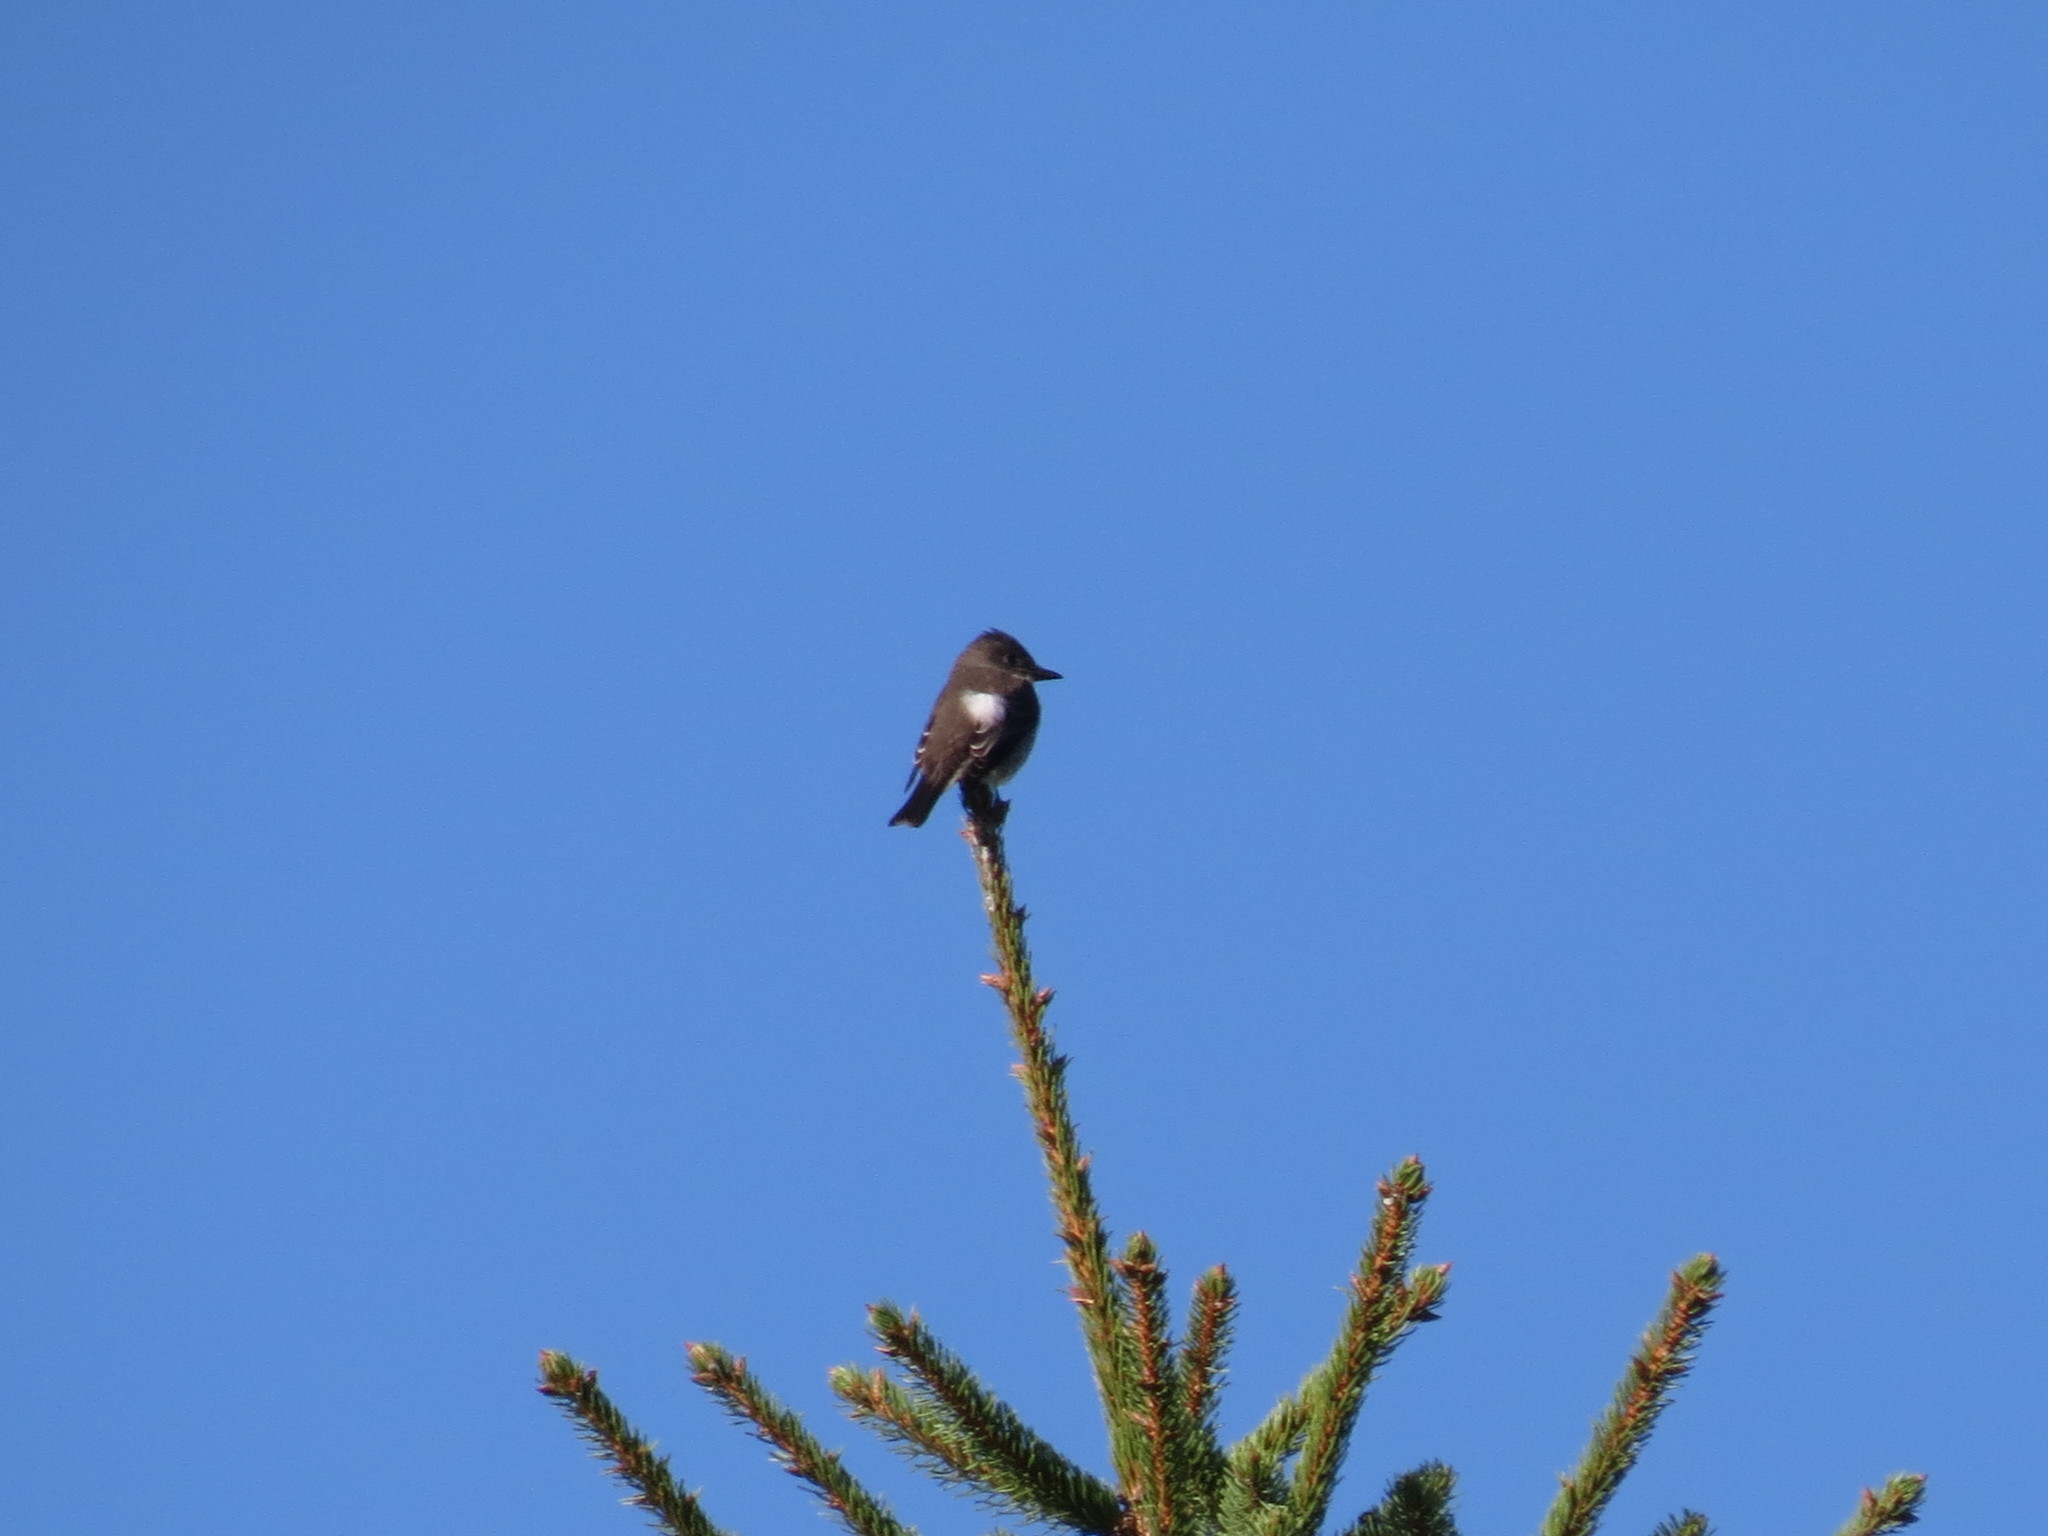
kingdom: Animalia
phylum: Chordata
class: Aves
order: Passeriformes
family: Tyrannidae
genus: Contopus
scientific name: Contopus cooperi
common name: Olive-sided flycatcher
